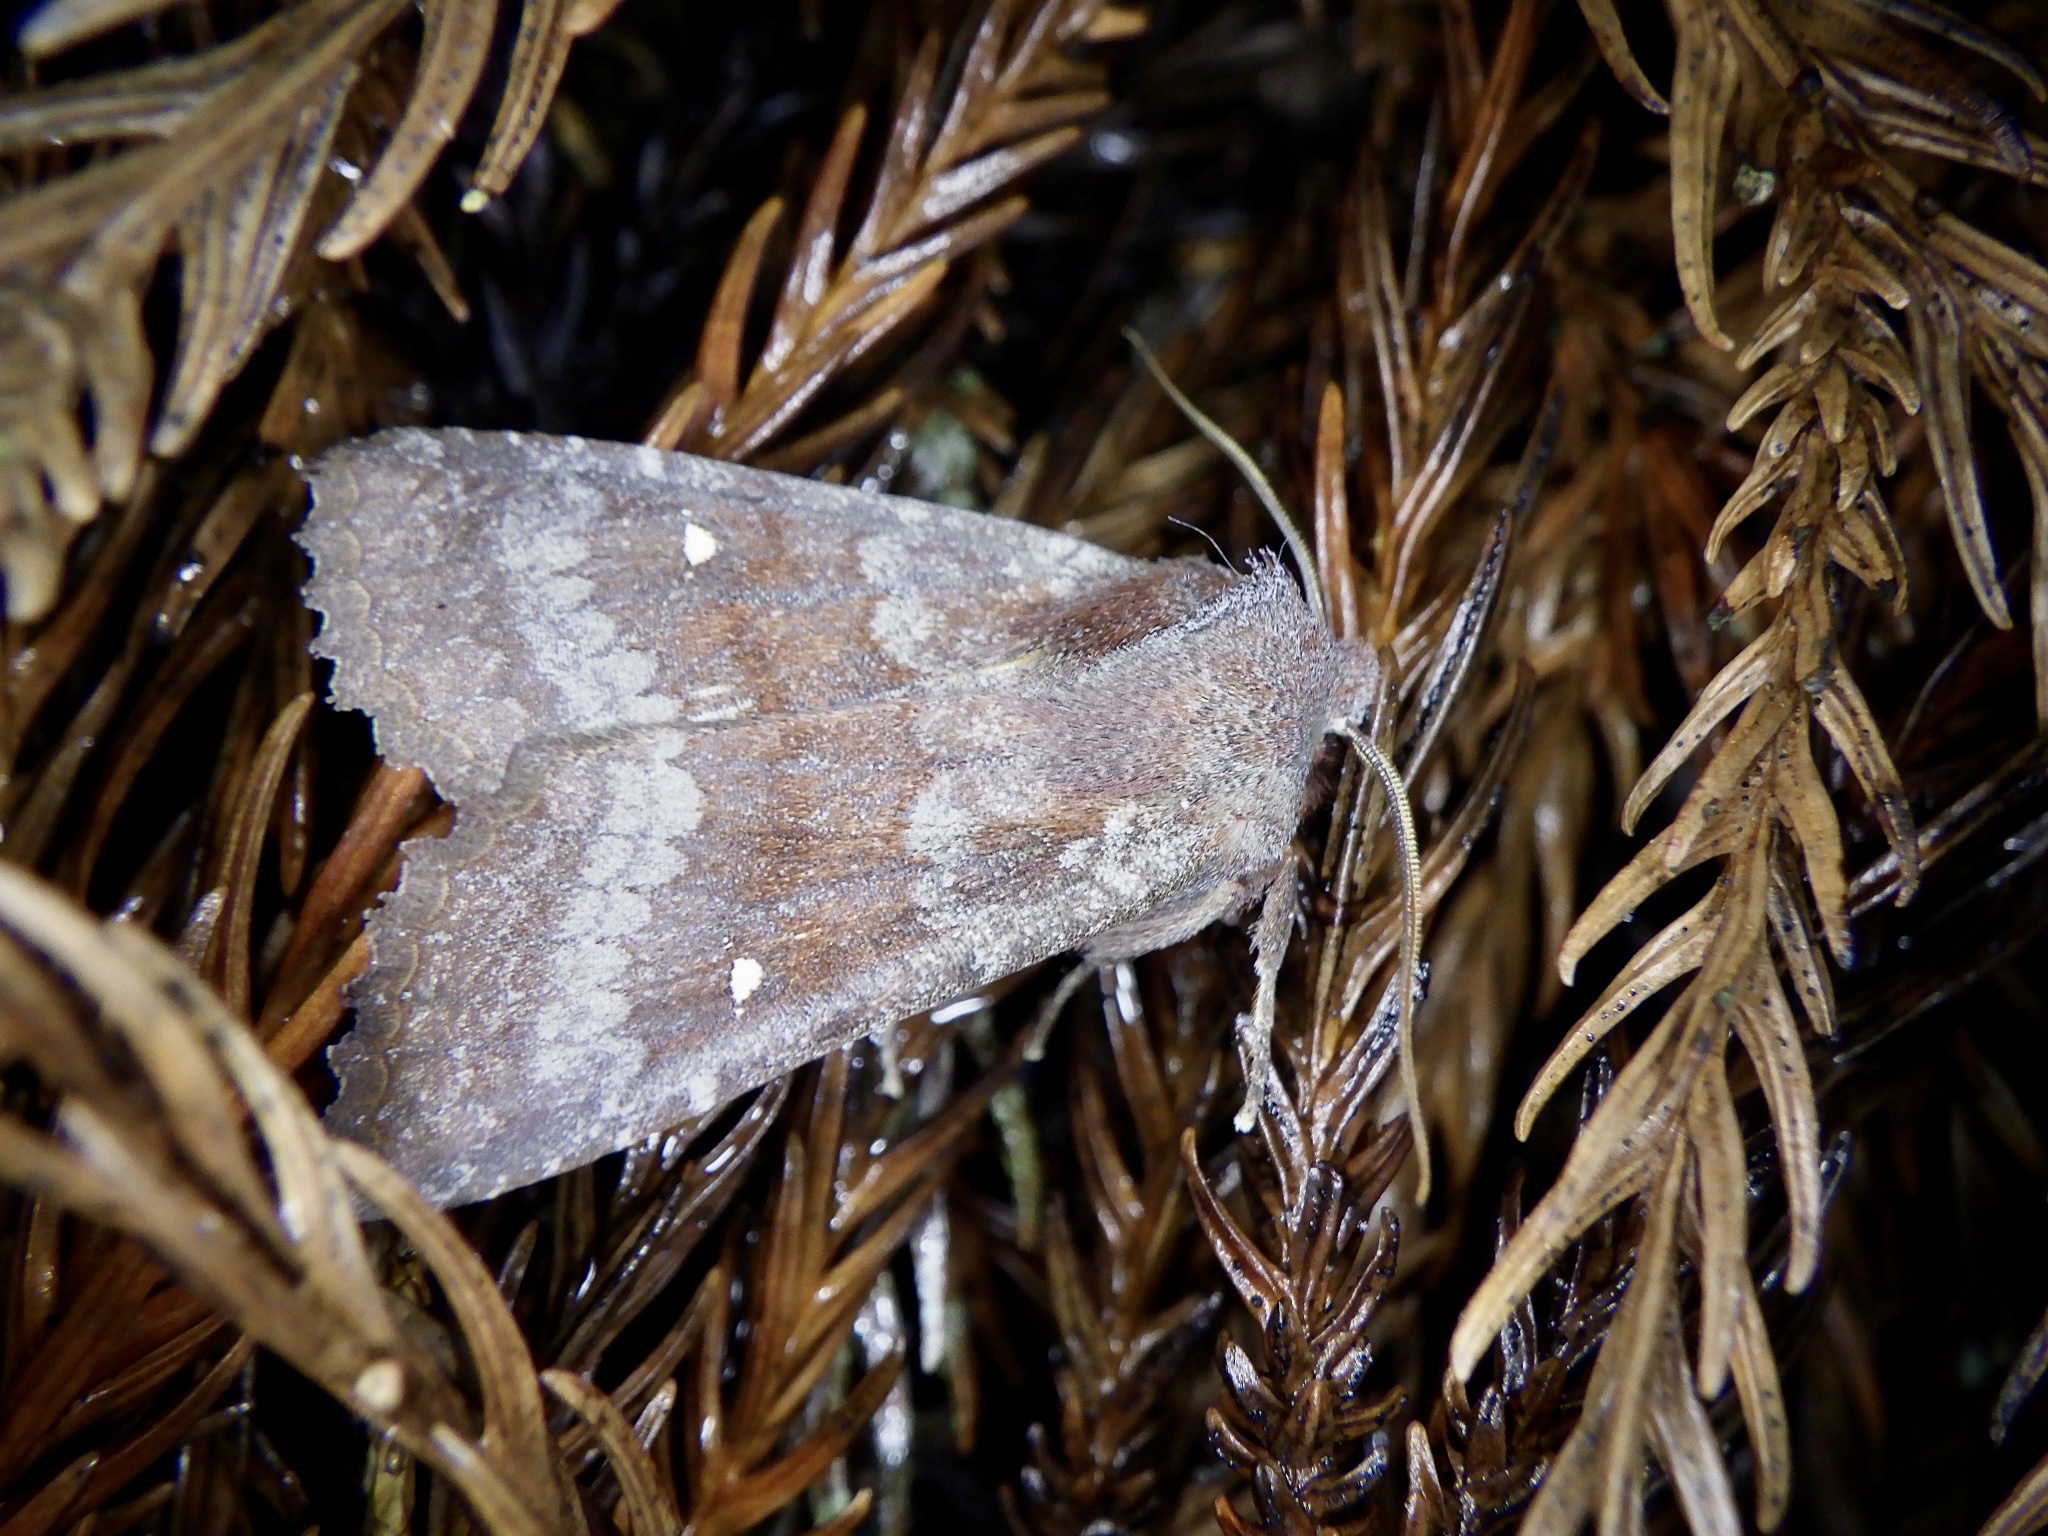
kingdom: Animalia
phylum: Arthropoda
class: Insecta
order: Lepidoptera
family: Noctuidae
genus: Eupsilia
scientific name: Eupsilia unipuncta
